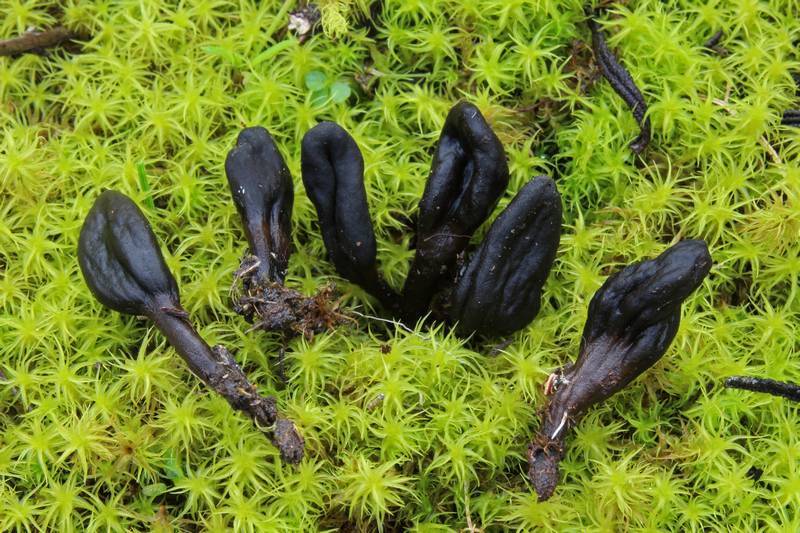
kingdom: Fungi
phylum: Ascomycota
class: Geoglossomycetes
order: Geoglossales
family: Geoglossaceae
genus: Geoglossum
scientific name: Geoglossum umbratile
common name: Plain earthtongue
